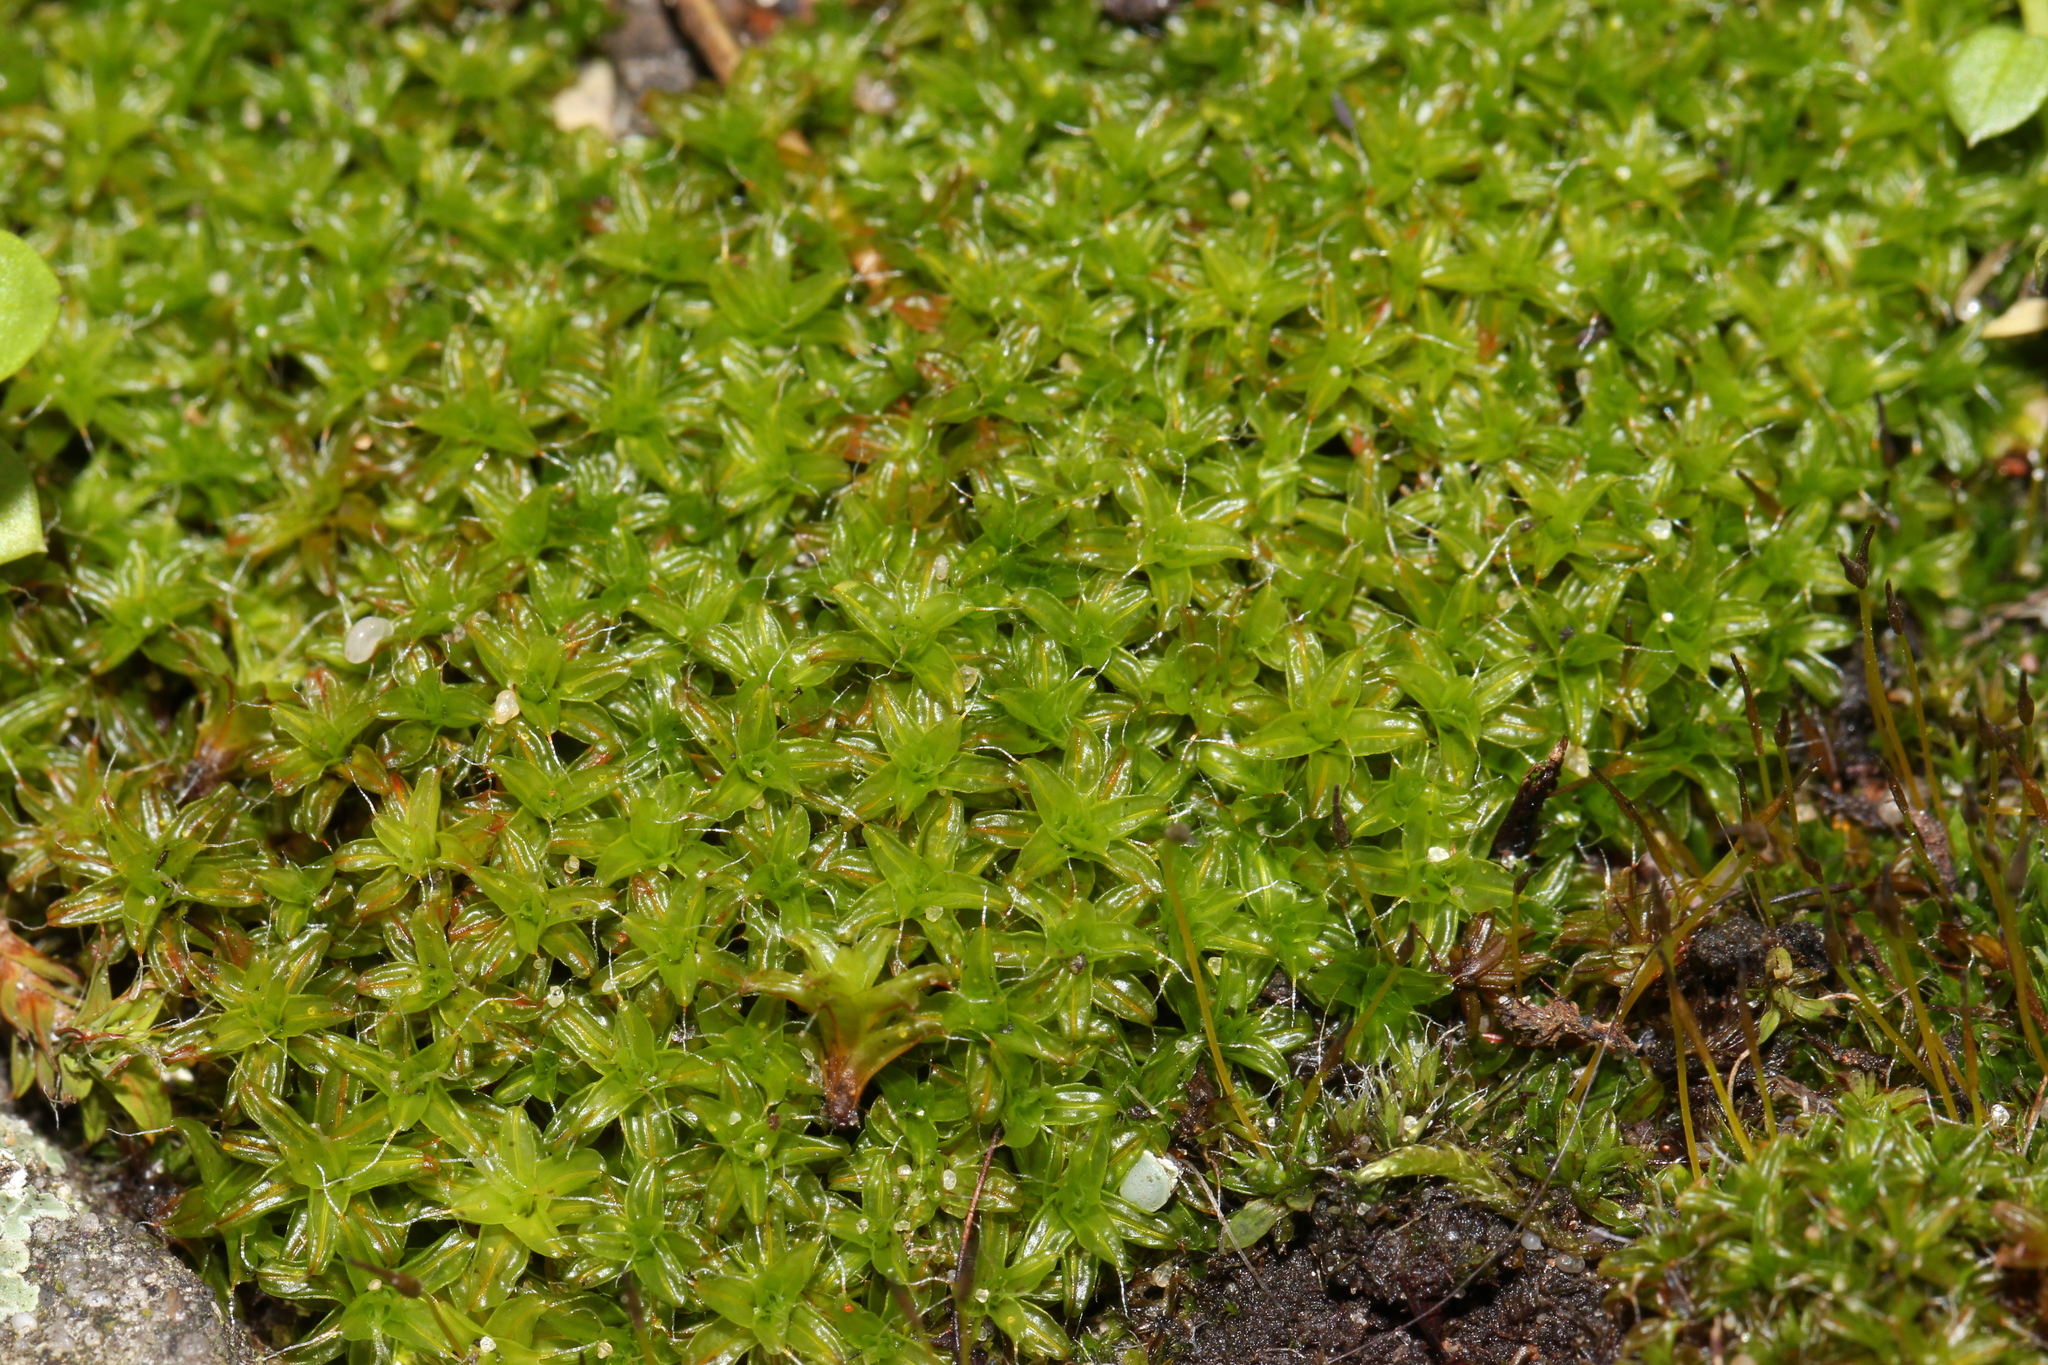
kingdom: Plantae
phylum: Bryophyta
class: Bryopsida
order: Pottiales
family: Pottiaceae
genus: Syntrichia
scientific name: Syntrichia ruralis
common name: Sidewalk screw moss
